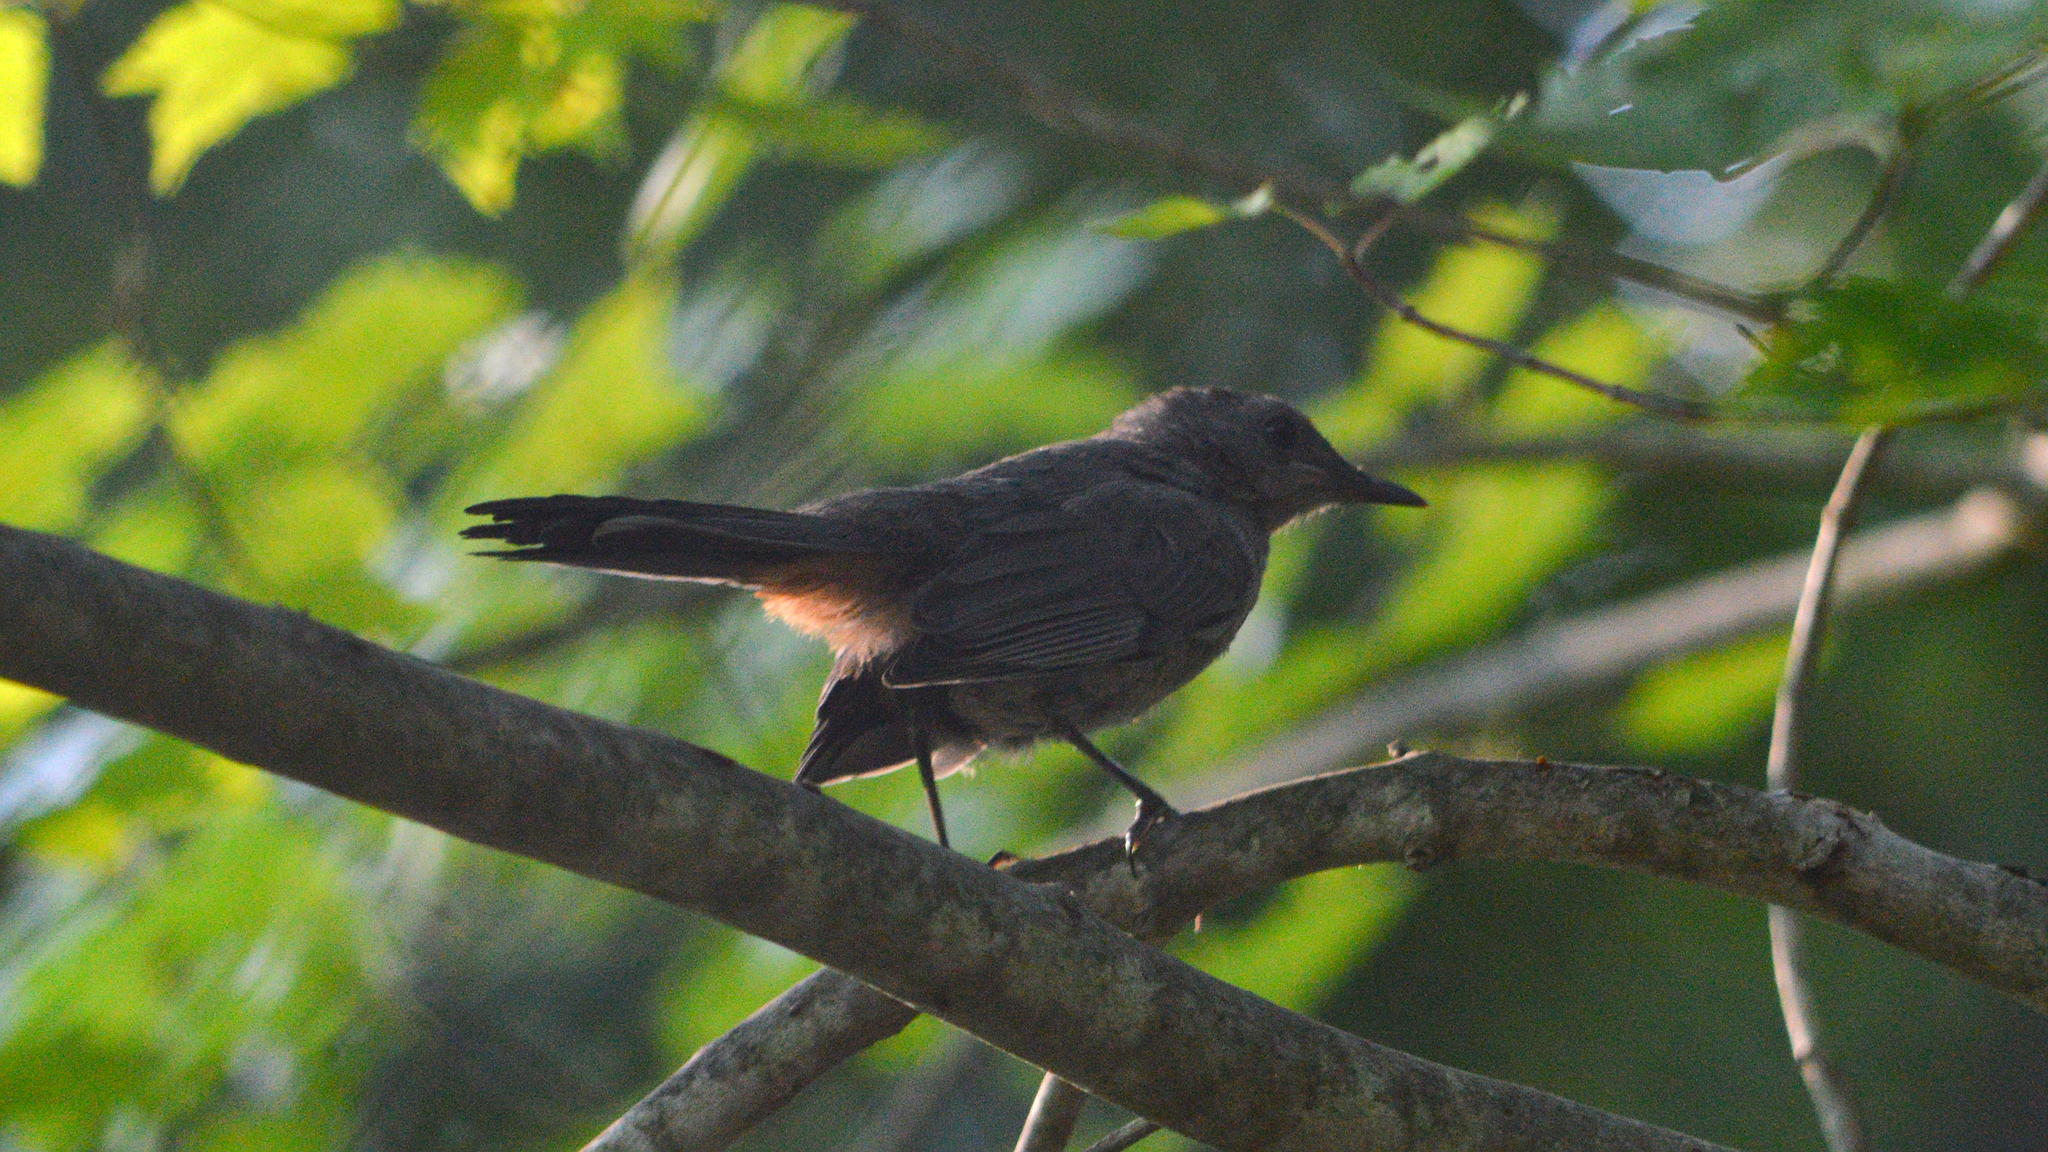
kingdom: Animalia
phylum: Chordata
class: Aves
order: Passeriformes
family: Mimidae
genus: Dumetella
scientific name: Dumetella carolinensis
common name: Gray catbird
